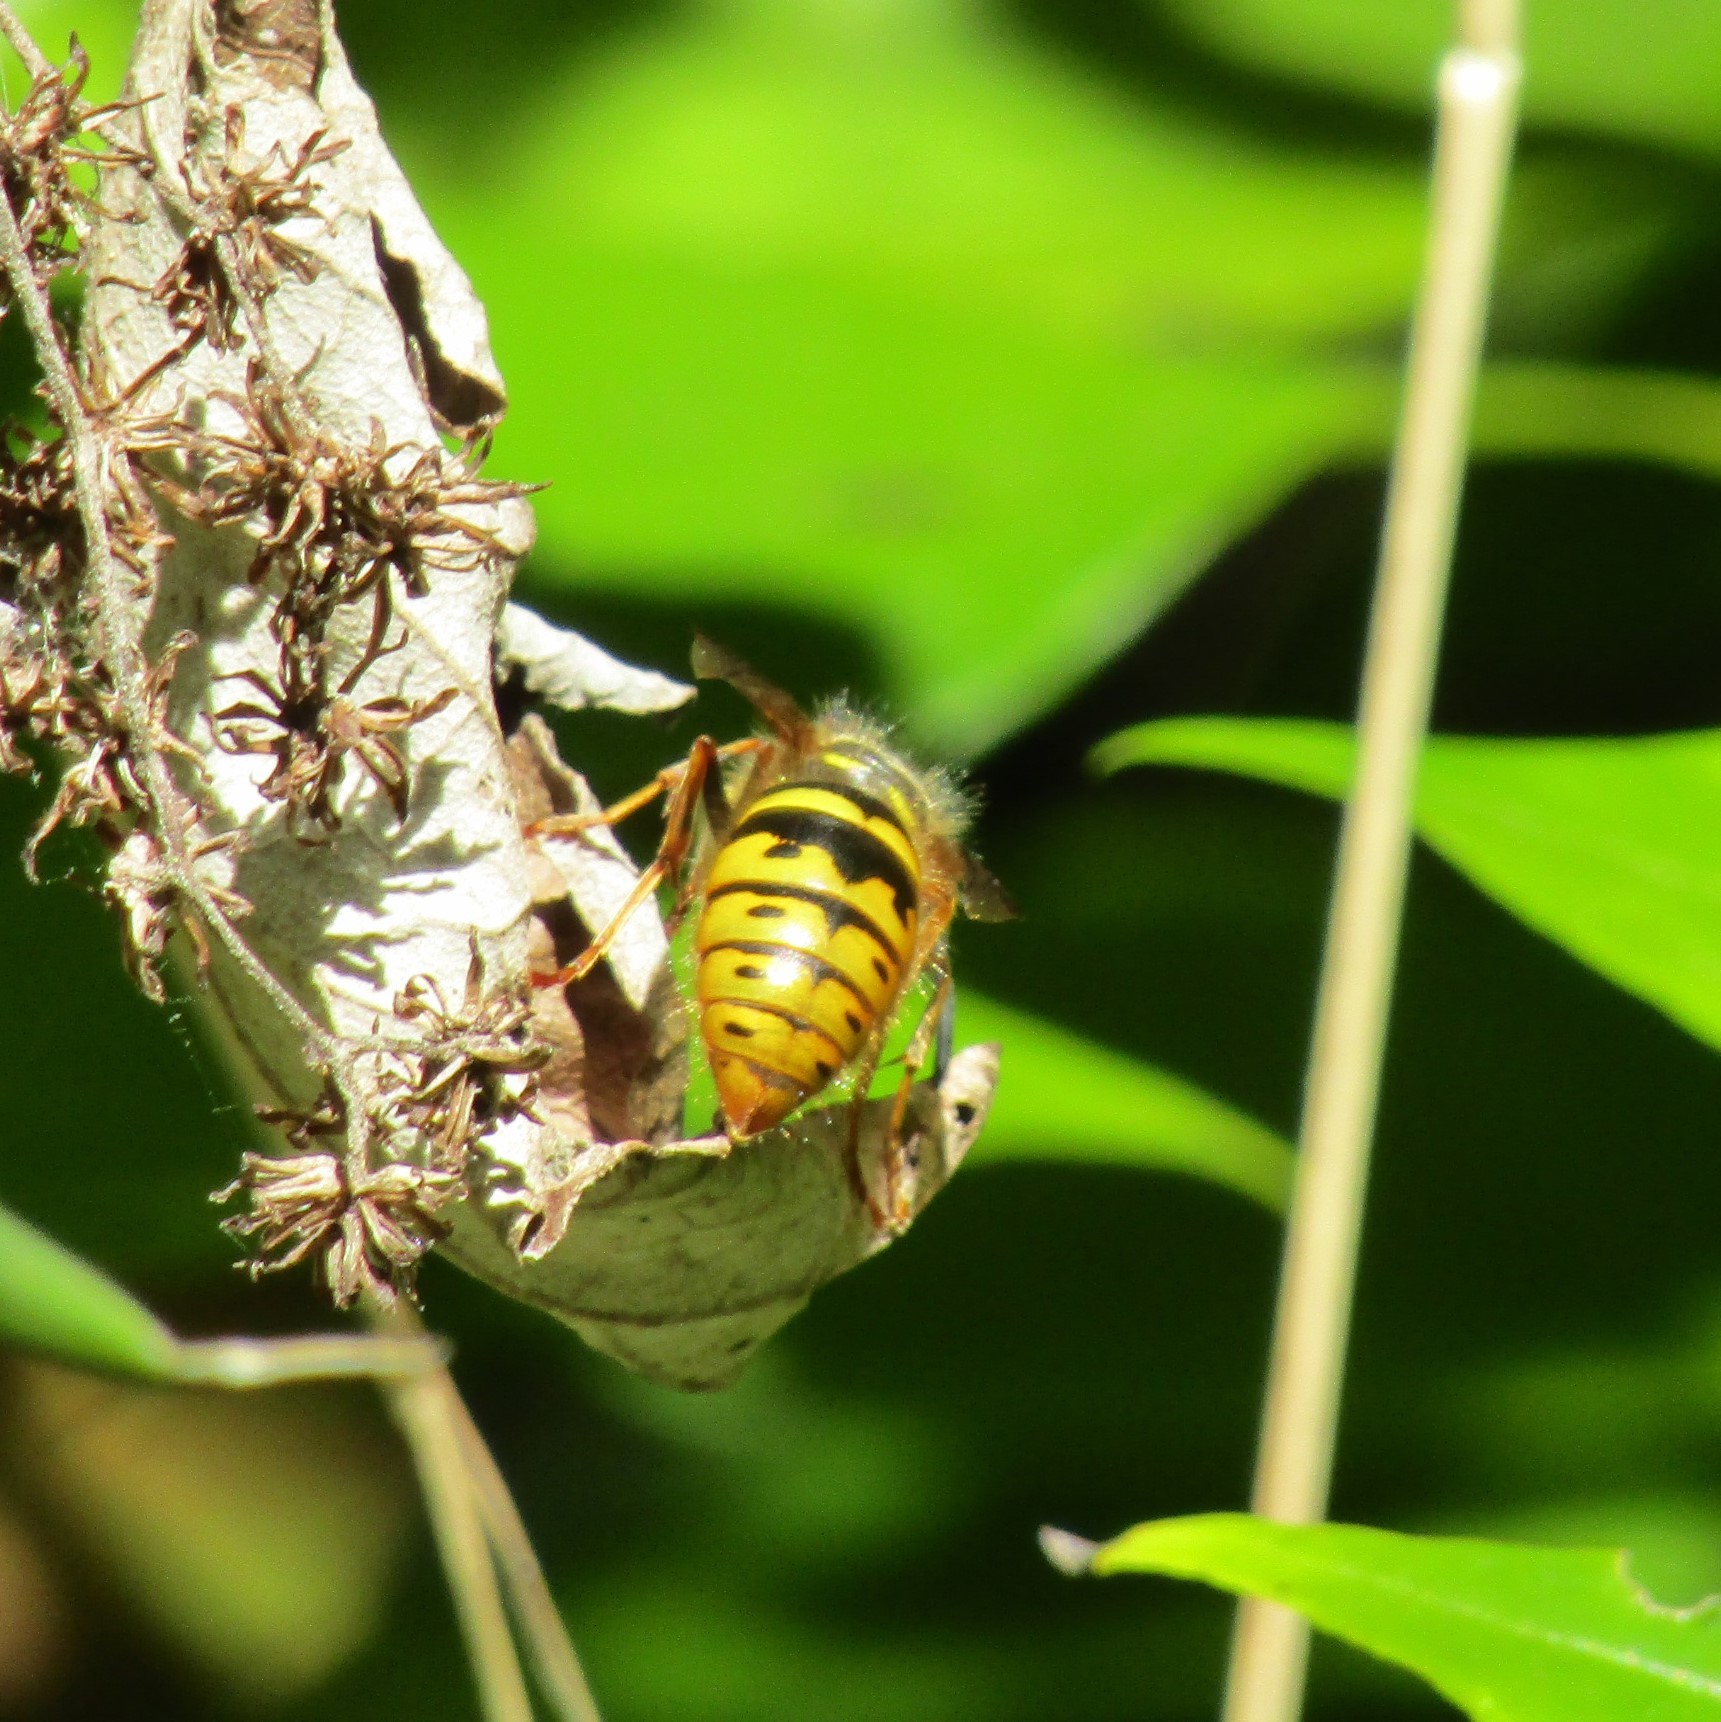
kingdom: Animalia
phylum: Arthropoda
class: Insecta
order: Hymenoptera
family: Vespidae
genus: Vespula
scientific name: Vespula vulgaris
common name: Common wasp
